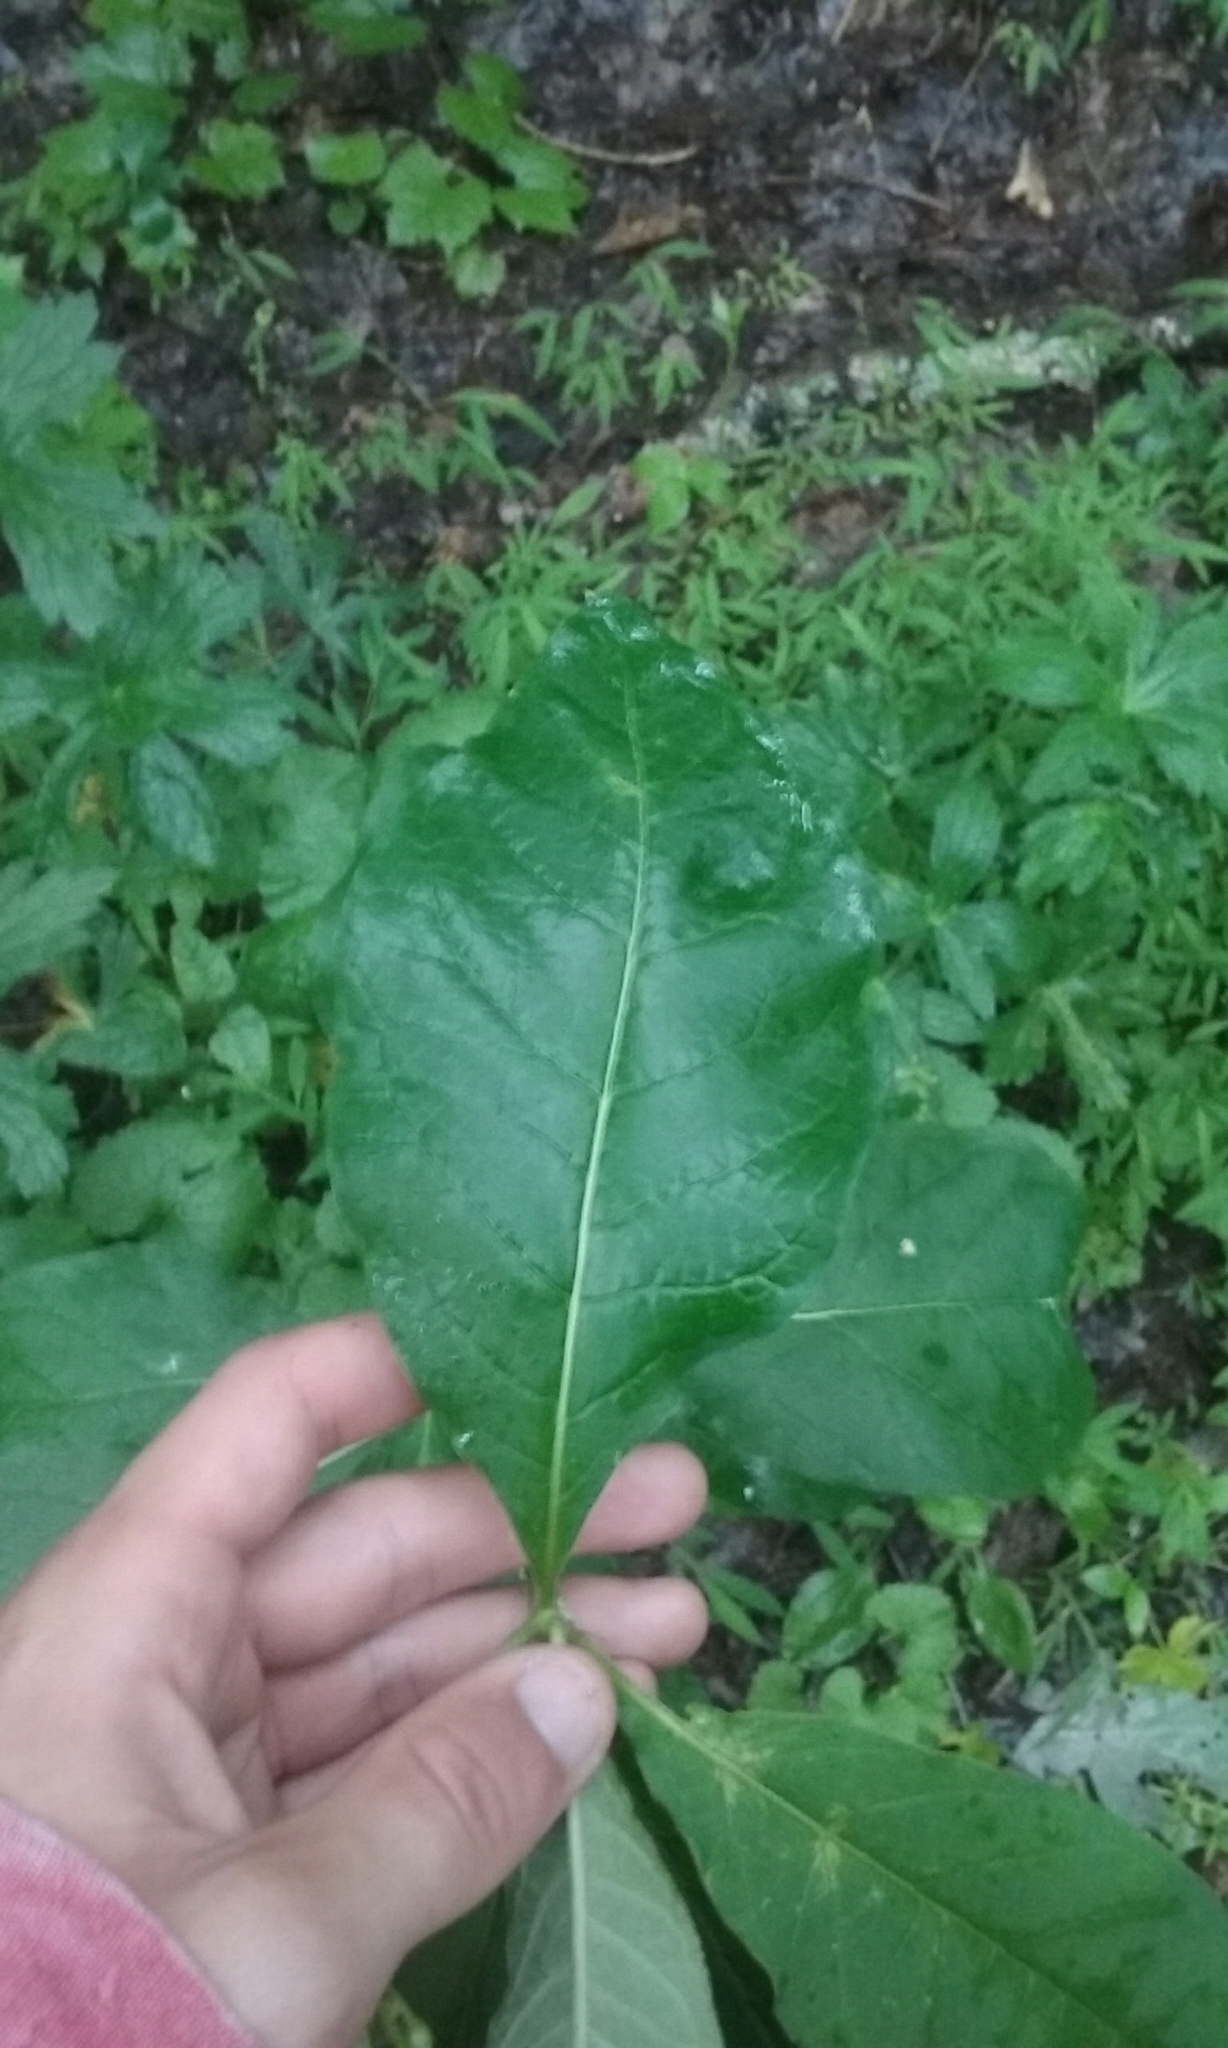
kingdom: Plantae
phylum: Tracheophyta
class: Magnoliopsida
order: Gentianales
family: Apocynaceae
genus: Asclepias
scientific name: Asclepias exaltata
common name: Poke milkweed
